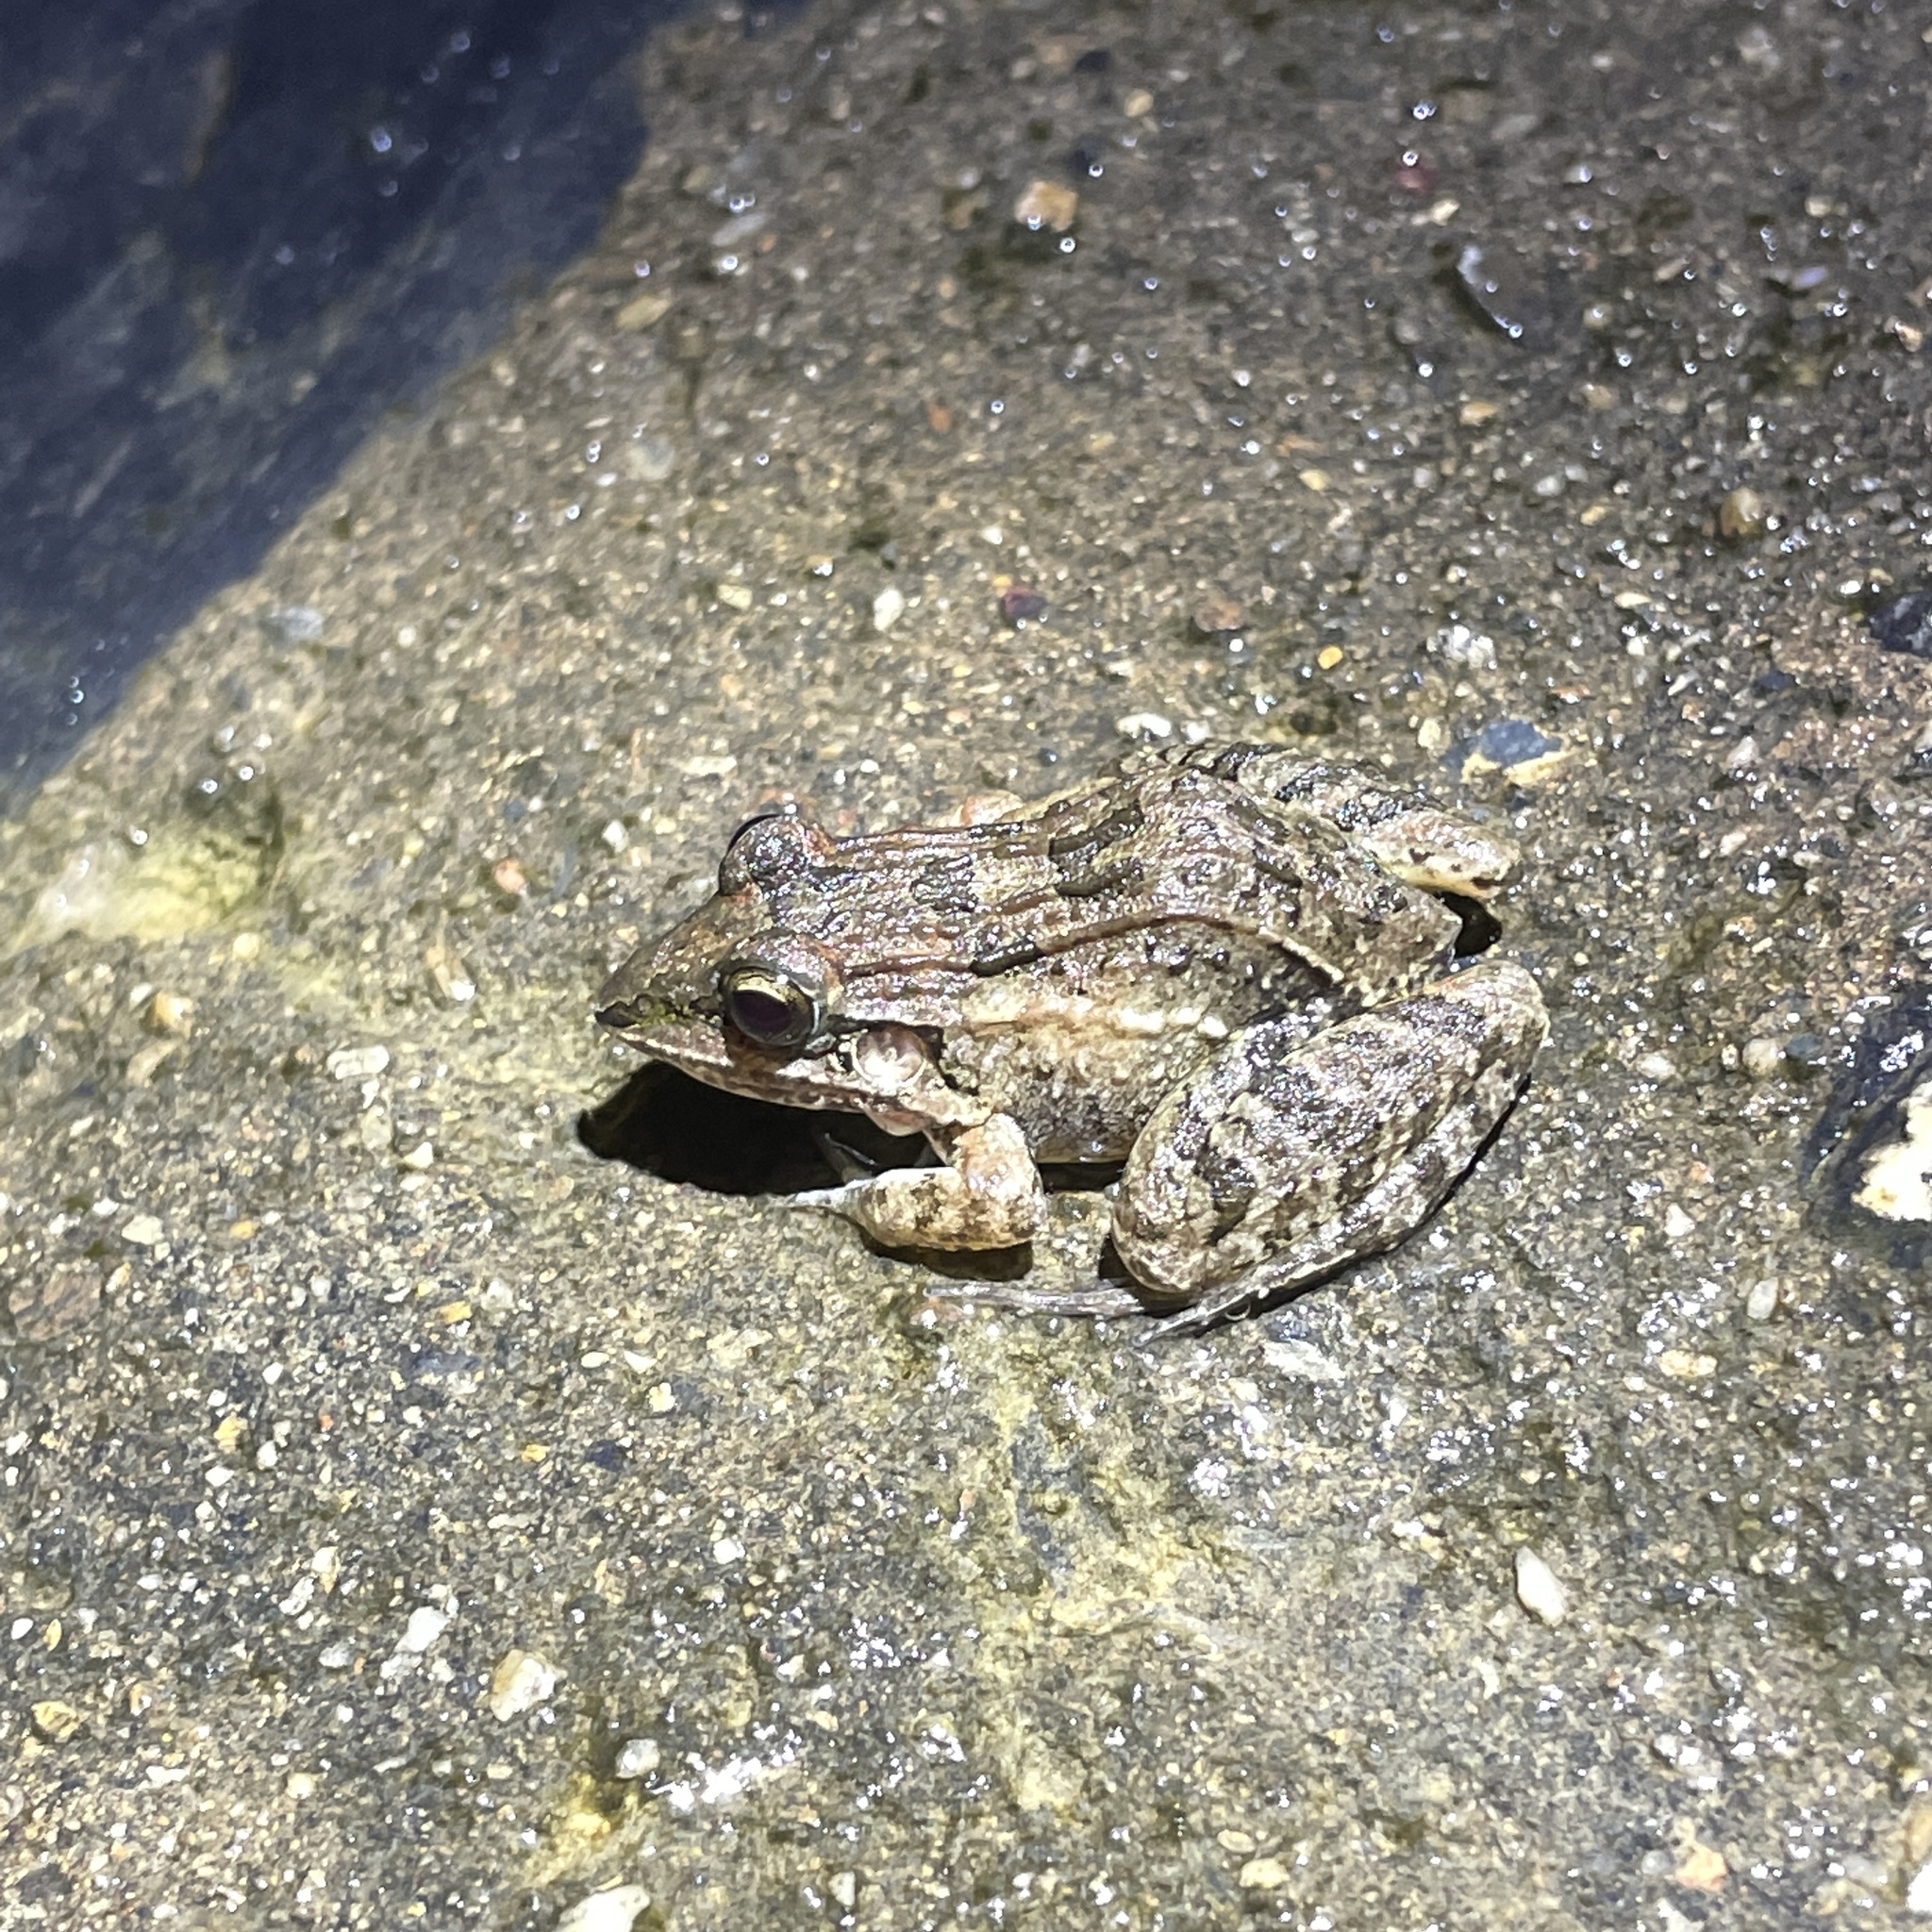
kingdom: Animalia
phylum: Chordata
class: Amphibia
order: Anura
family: Leptodactylidae
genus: Leptodactylus
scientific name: Leptodactylus fuscus
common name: Rufous frog
